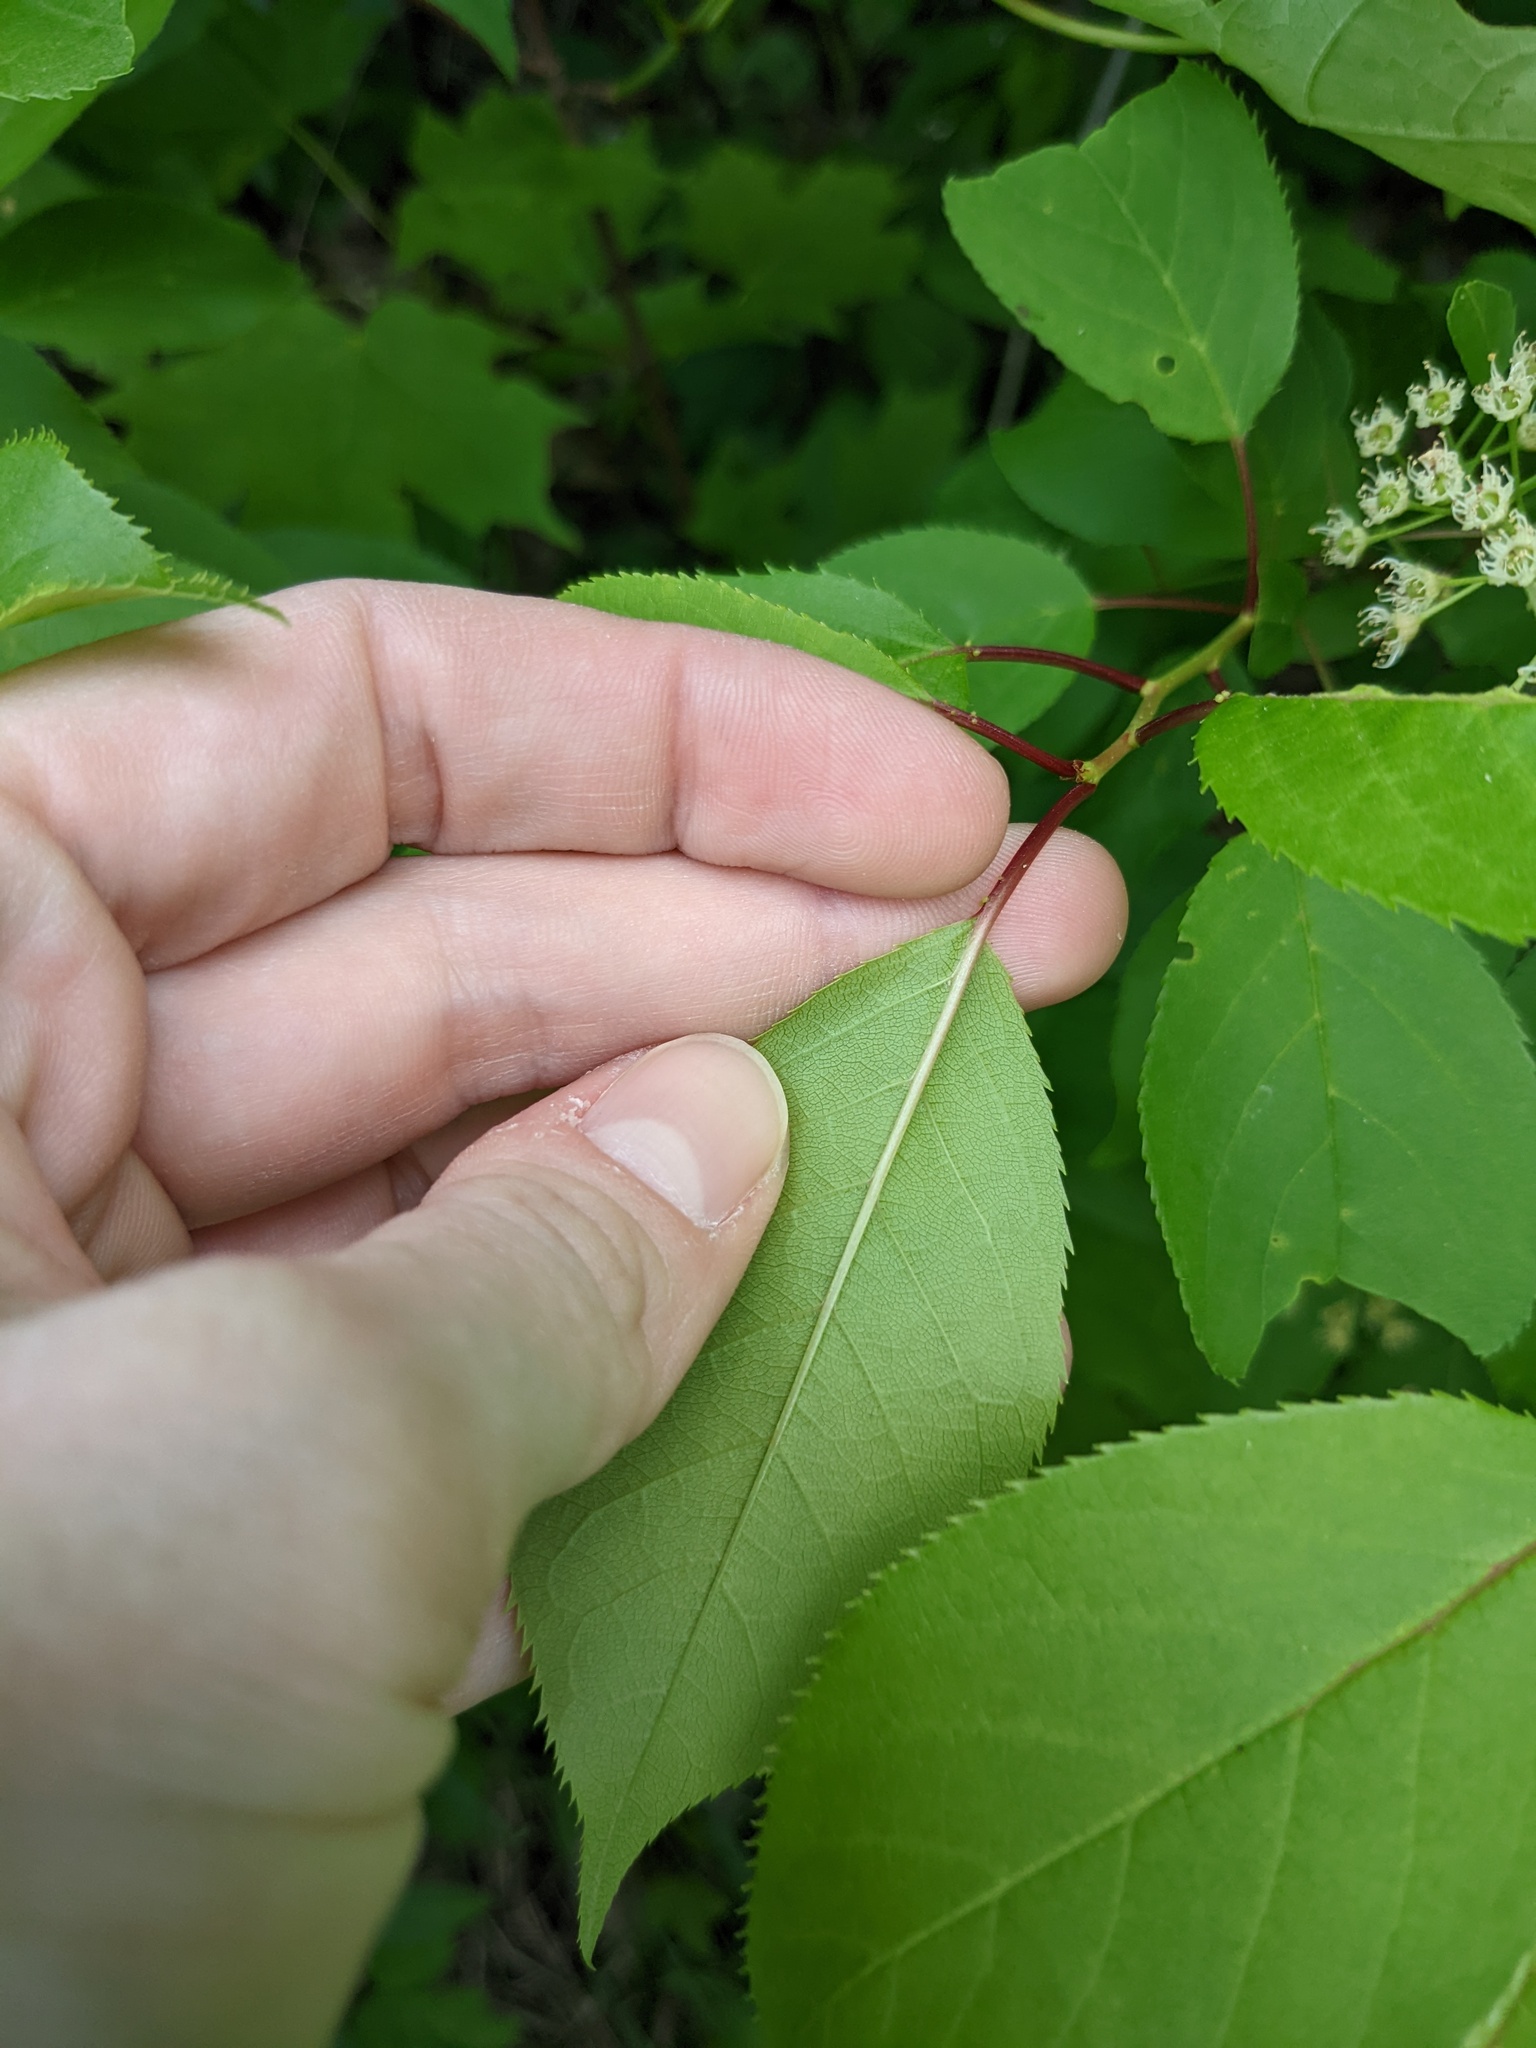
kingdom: Plantae
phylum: Tracheophyta
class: Magnoliopsida
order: Rosales
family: Rosaceae
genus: Prunus
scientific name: Prunus virginiana
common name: Chokecherry
